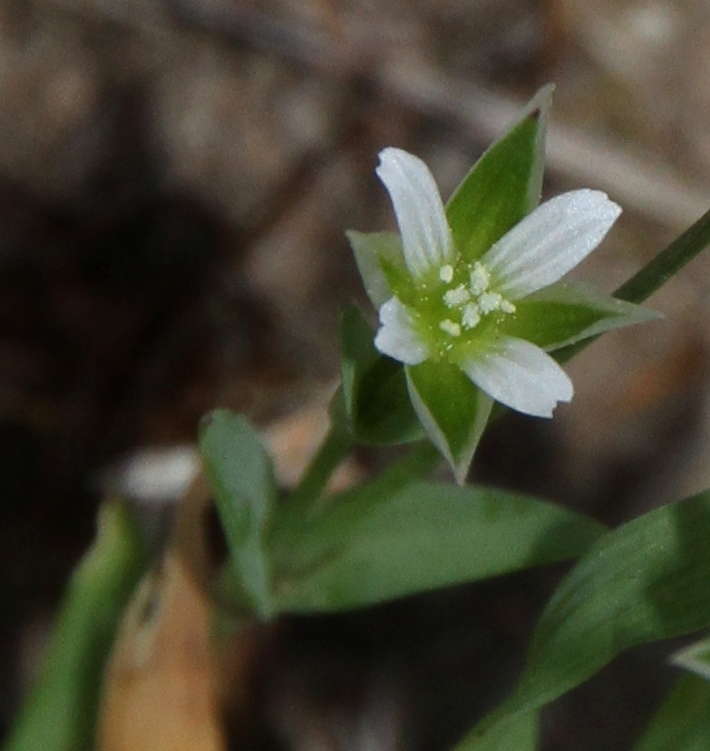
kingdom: Plantae
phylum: Tracheophyta
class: Magnoliopsida
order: Caryophyllales
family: Caryophyllaceae
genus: Moenchia
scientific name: Moenchia erecta
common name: Upright chickweed
